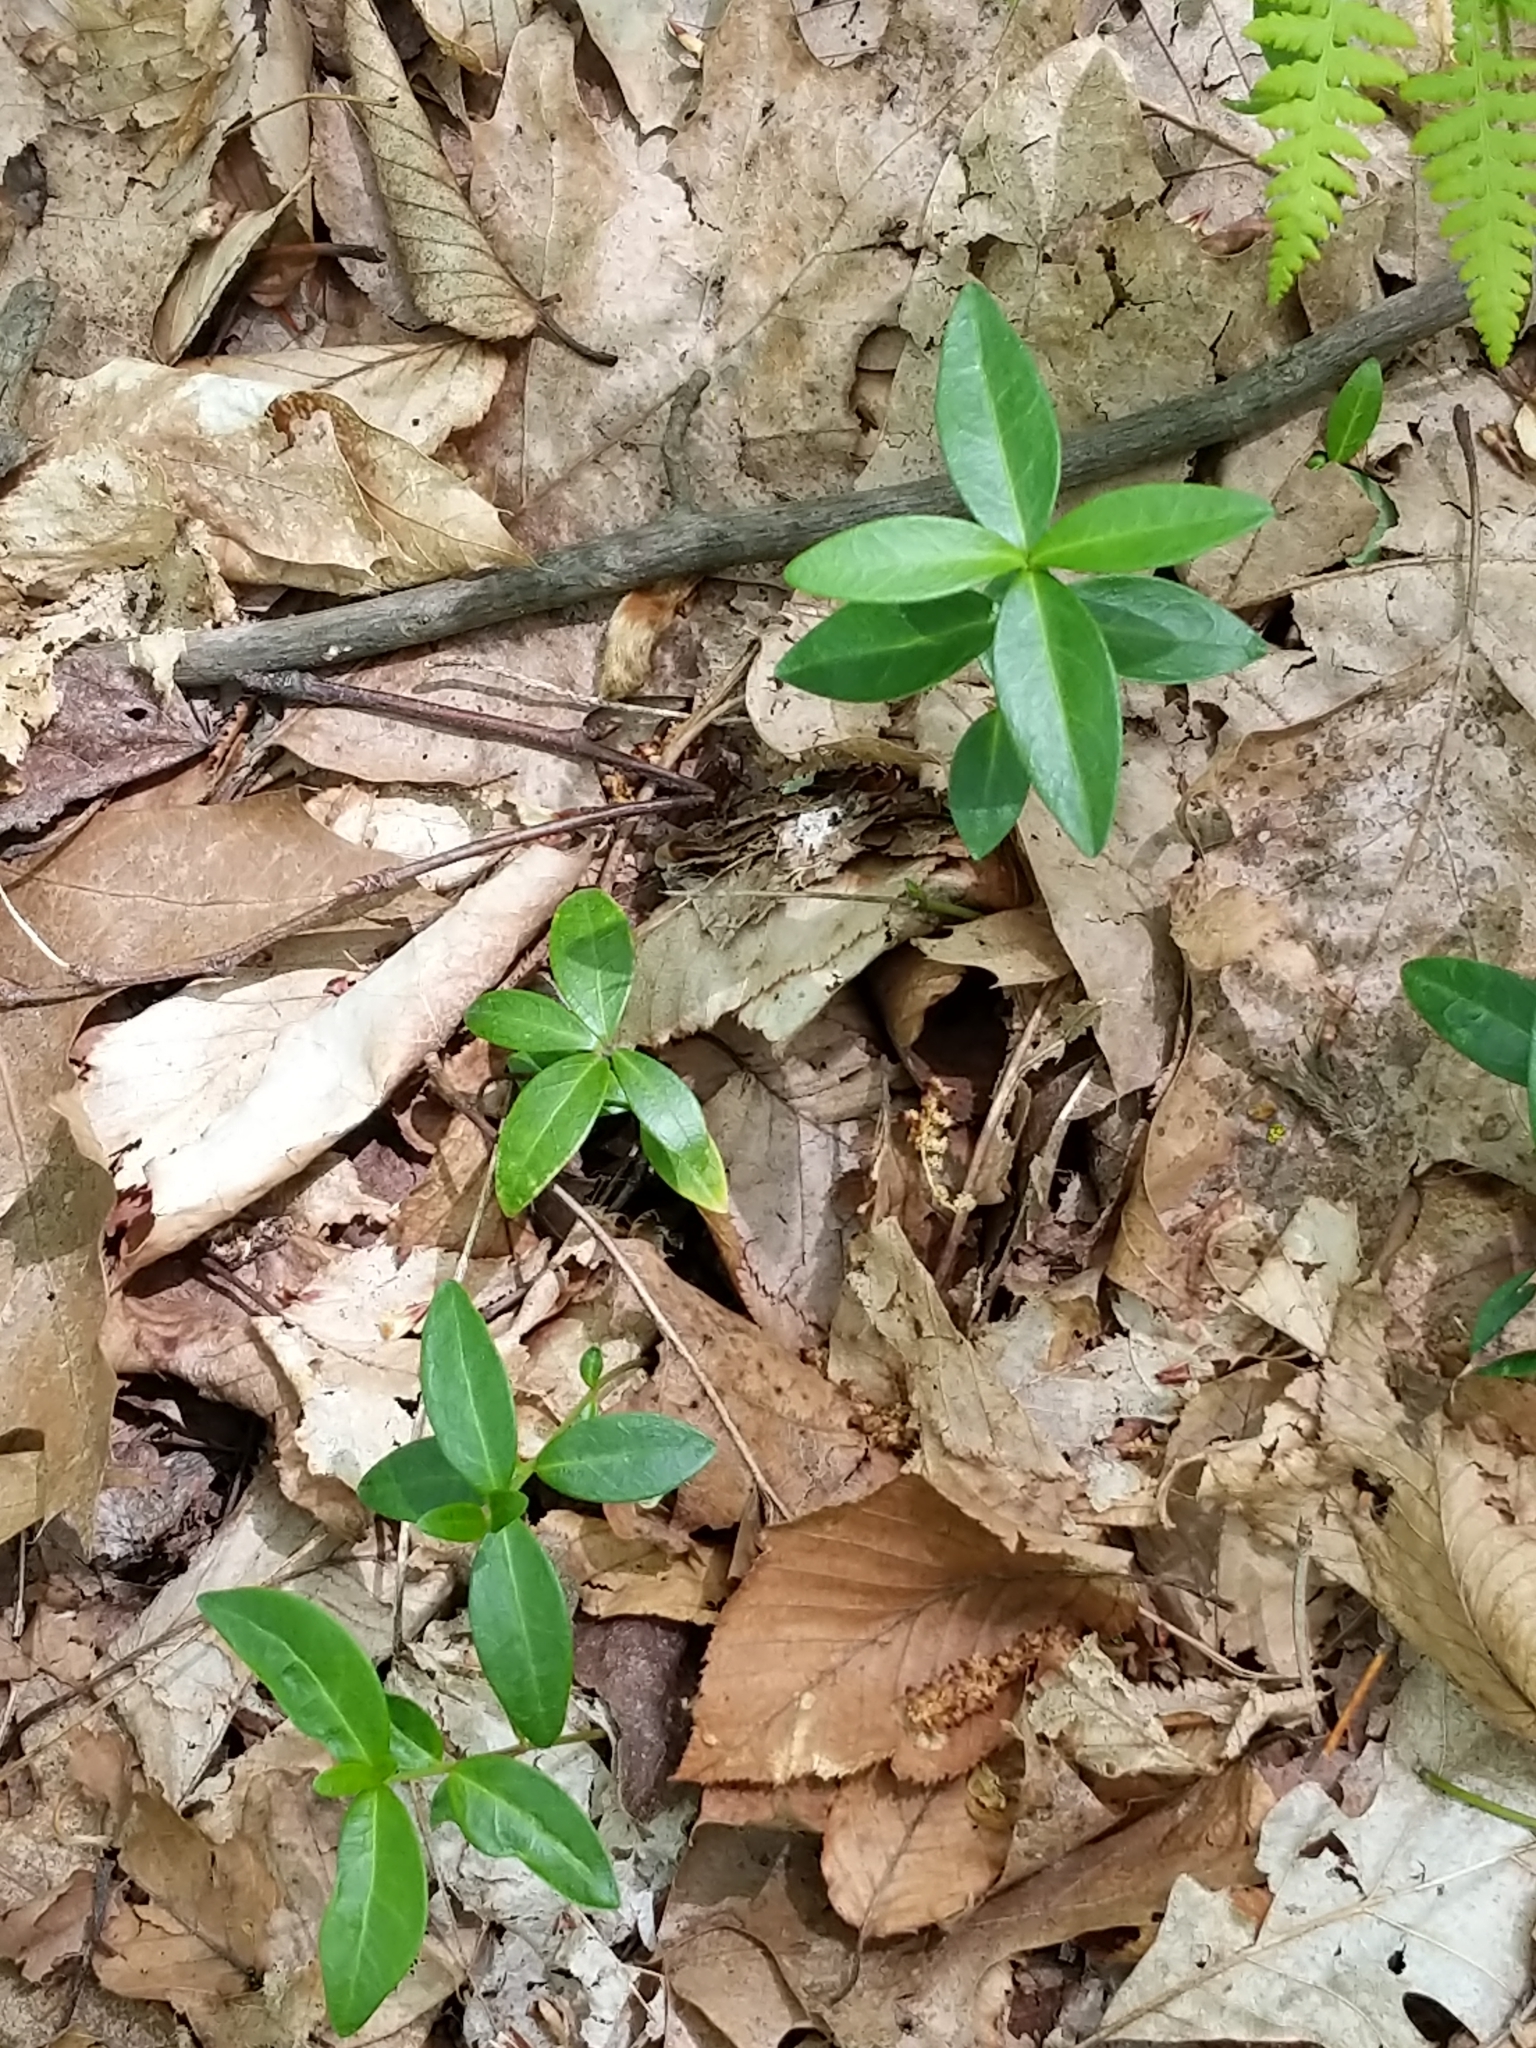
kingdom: Plantae
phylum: Tracheophyta
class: Magnoliopsida
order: Gentianales
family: Apocynaceae
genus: Vinca
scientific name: Vinca minor
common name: Lesser periwinkle
